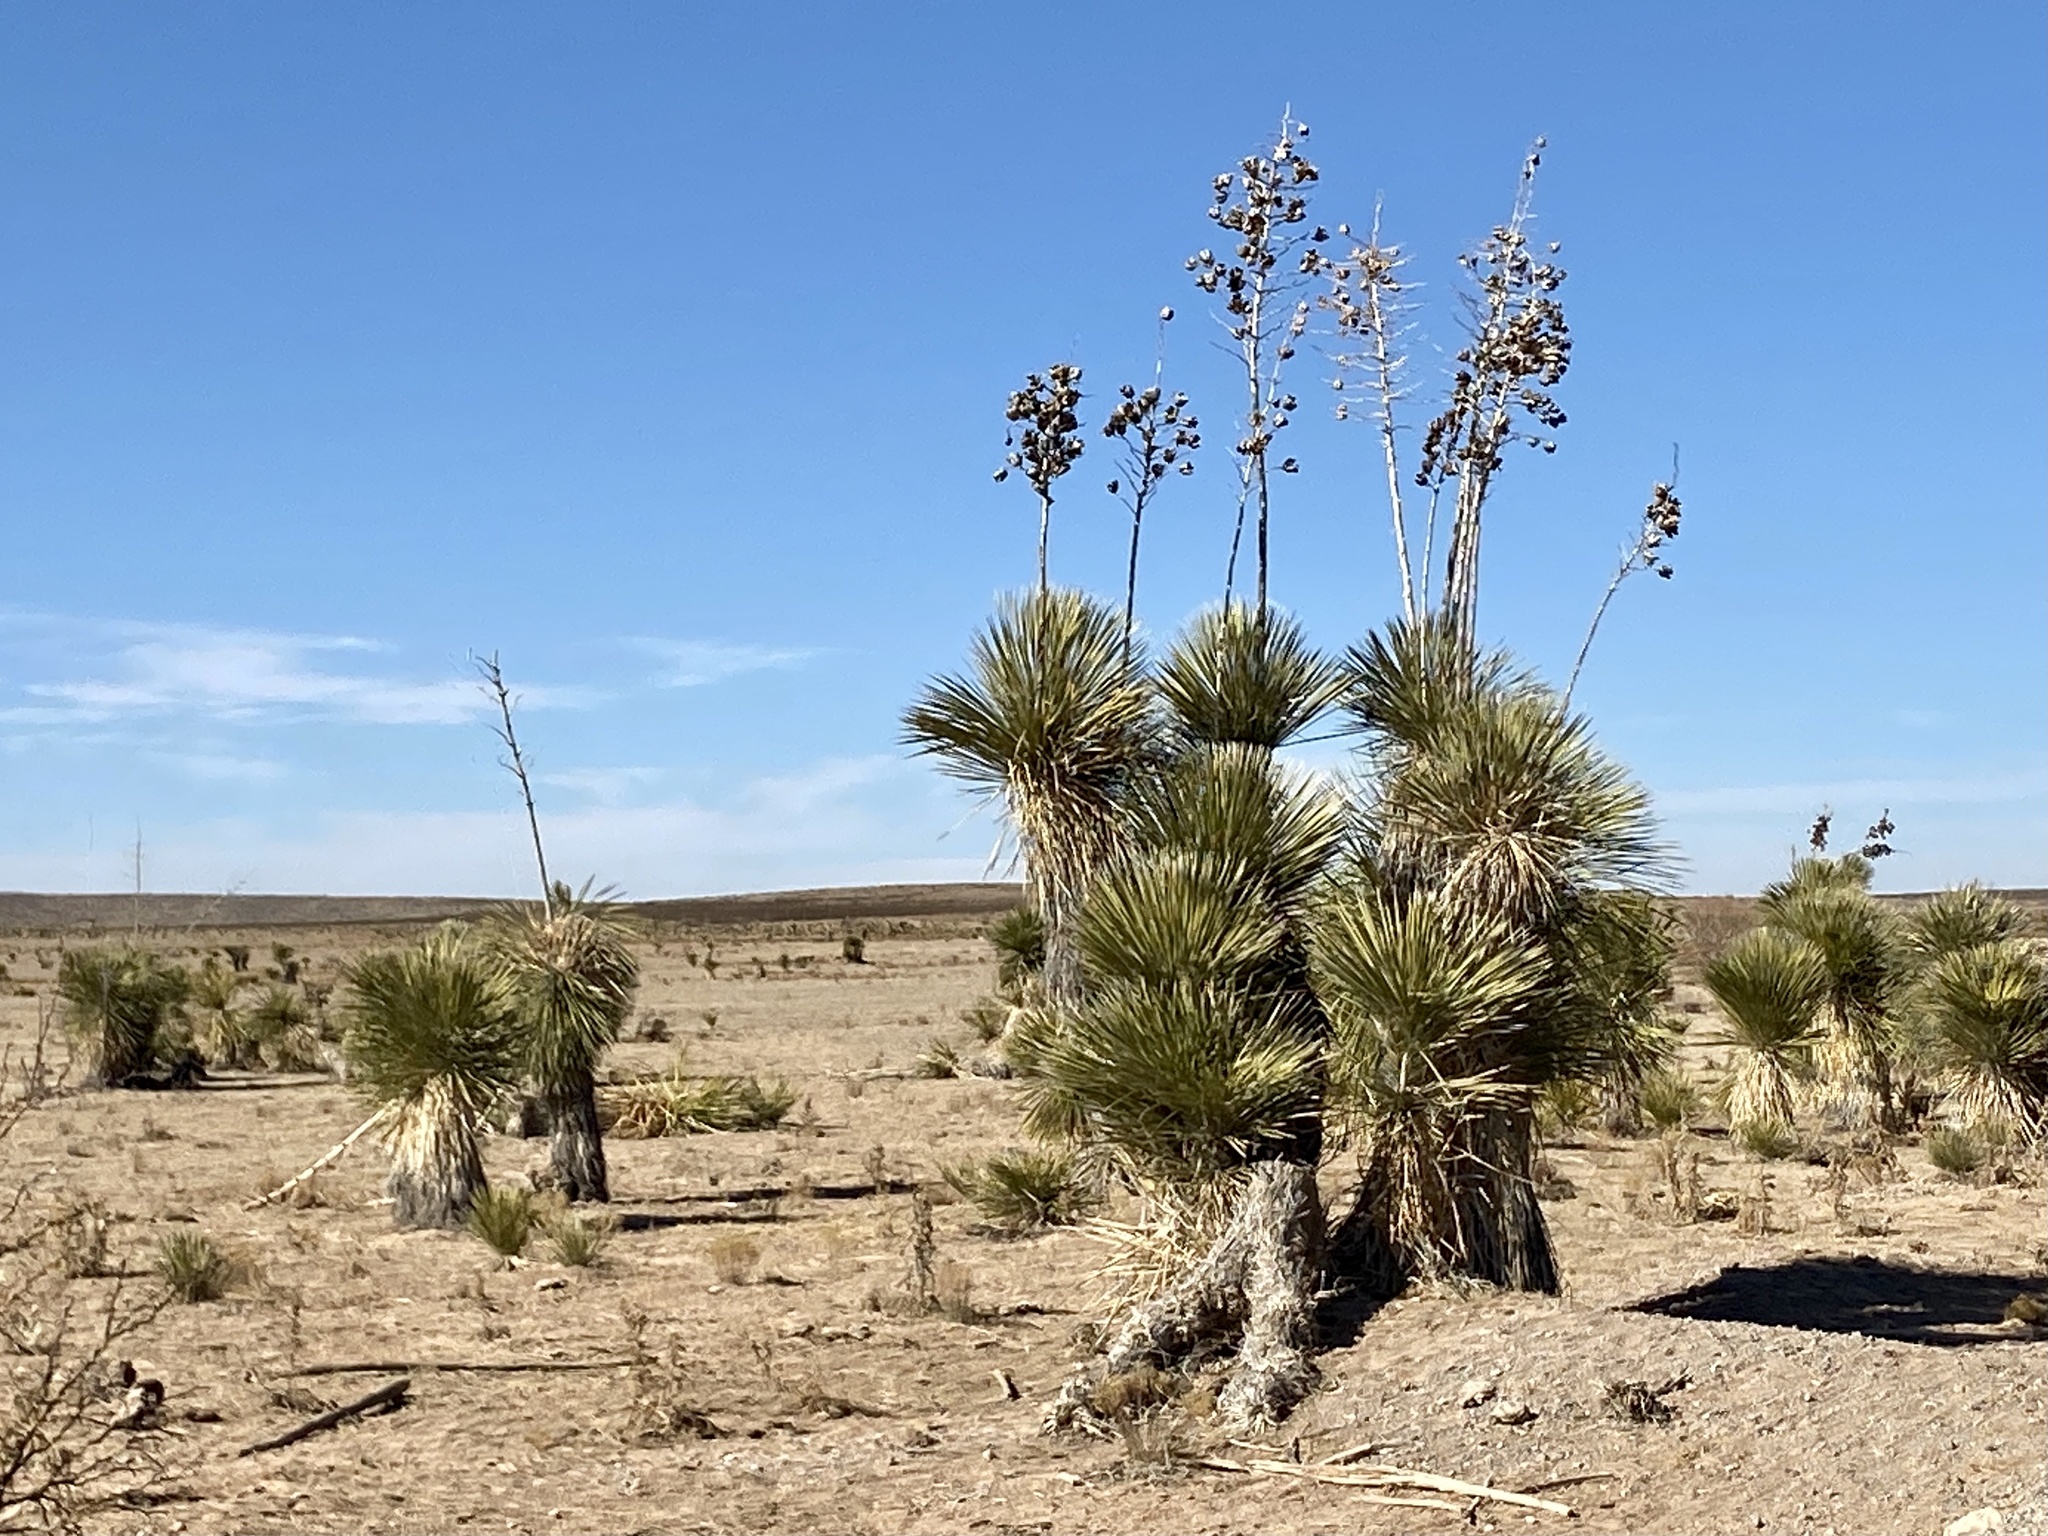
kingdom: Plantae
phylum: Tracheophyta
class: Liliopsida
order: Asparagales
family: Asparagaceae
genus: Yucca
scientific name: Yucca elata
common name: Palmella
